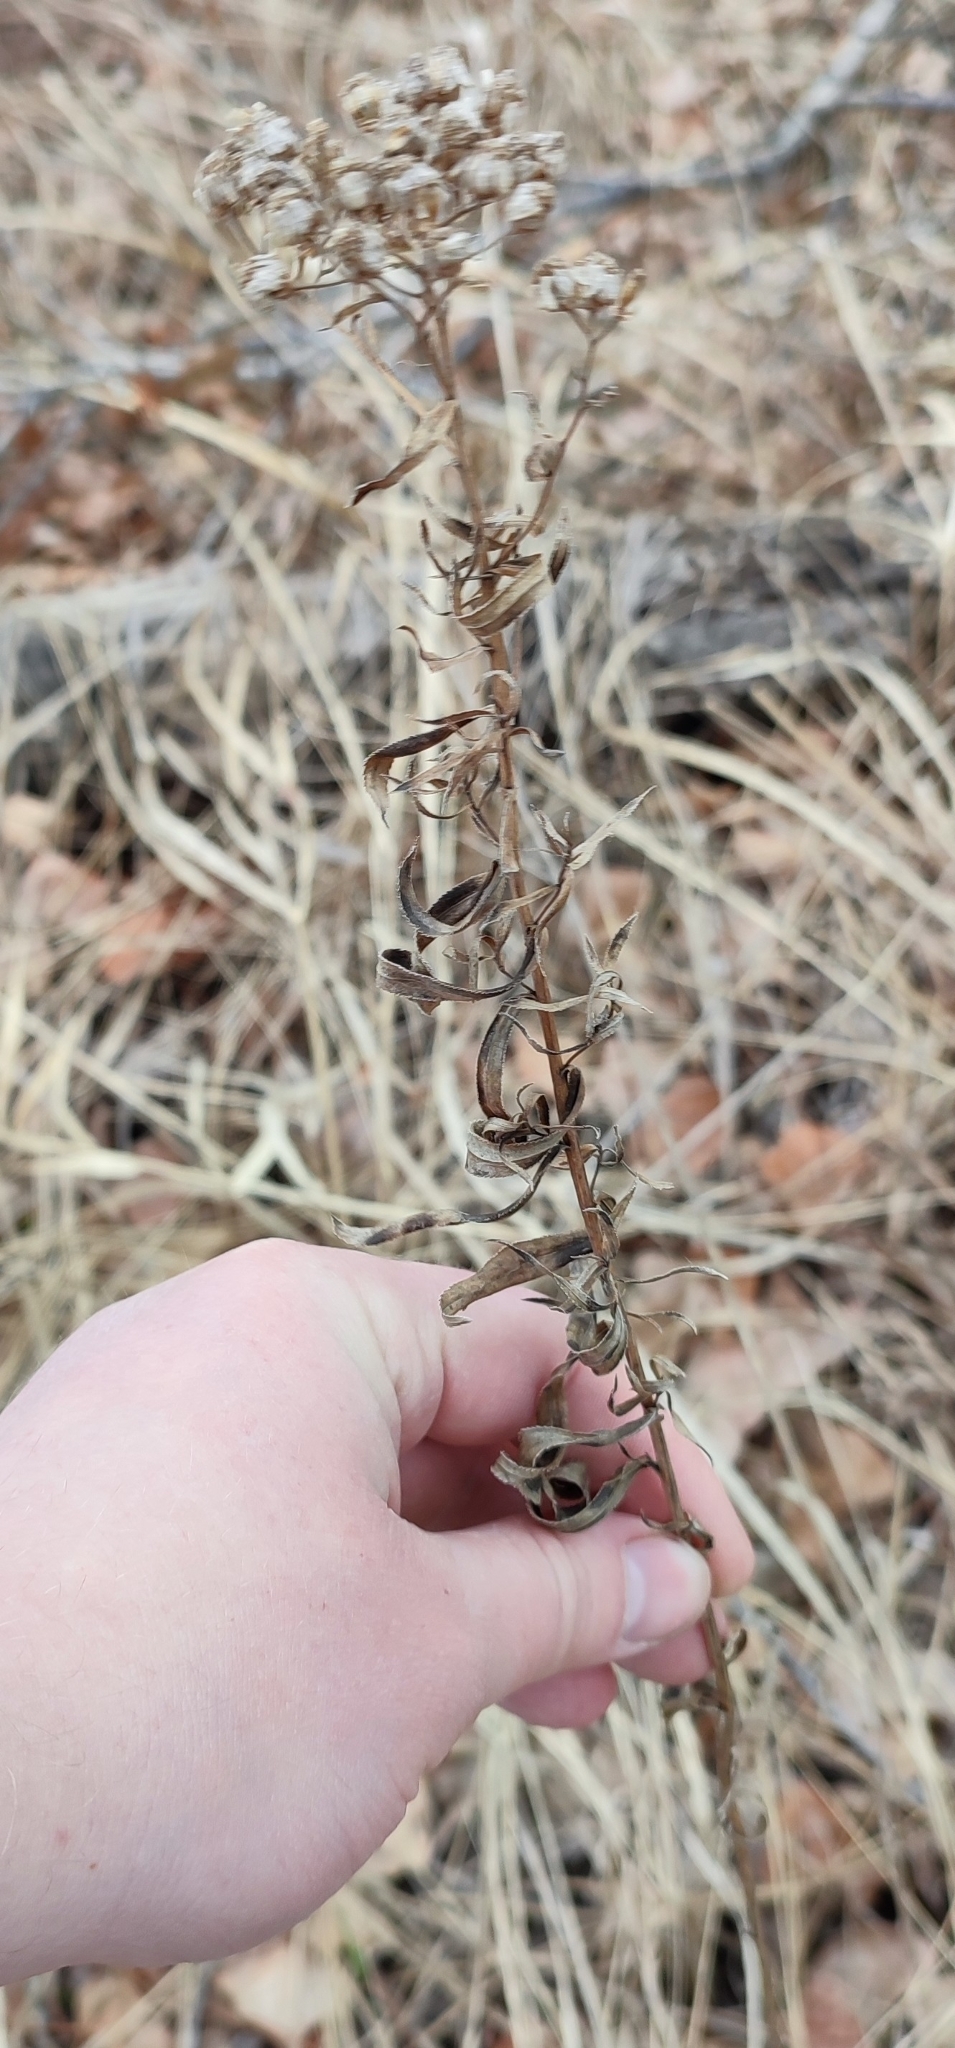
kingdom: Plantae
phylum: Tracheophyta
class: Magnoliopsida
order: Asterales
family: Asteraceae
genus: Achillea
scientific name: Achillea salicifolia
